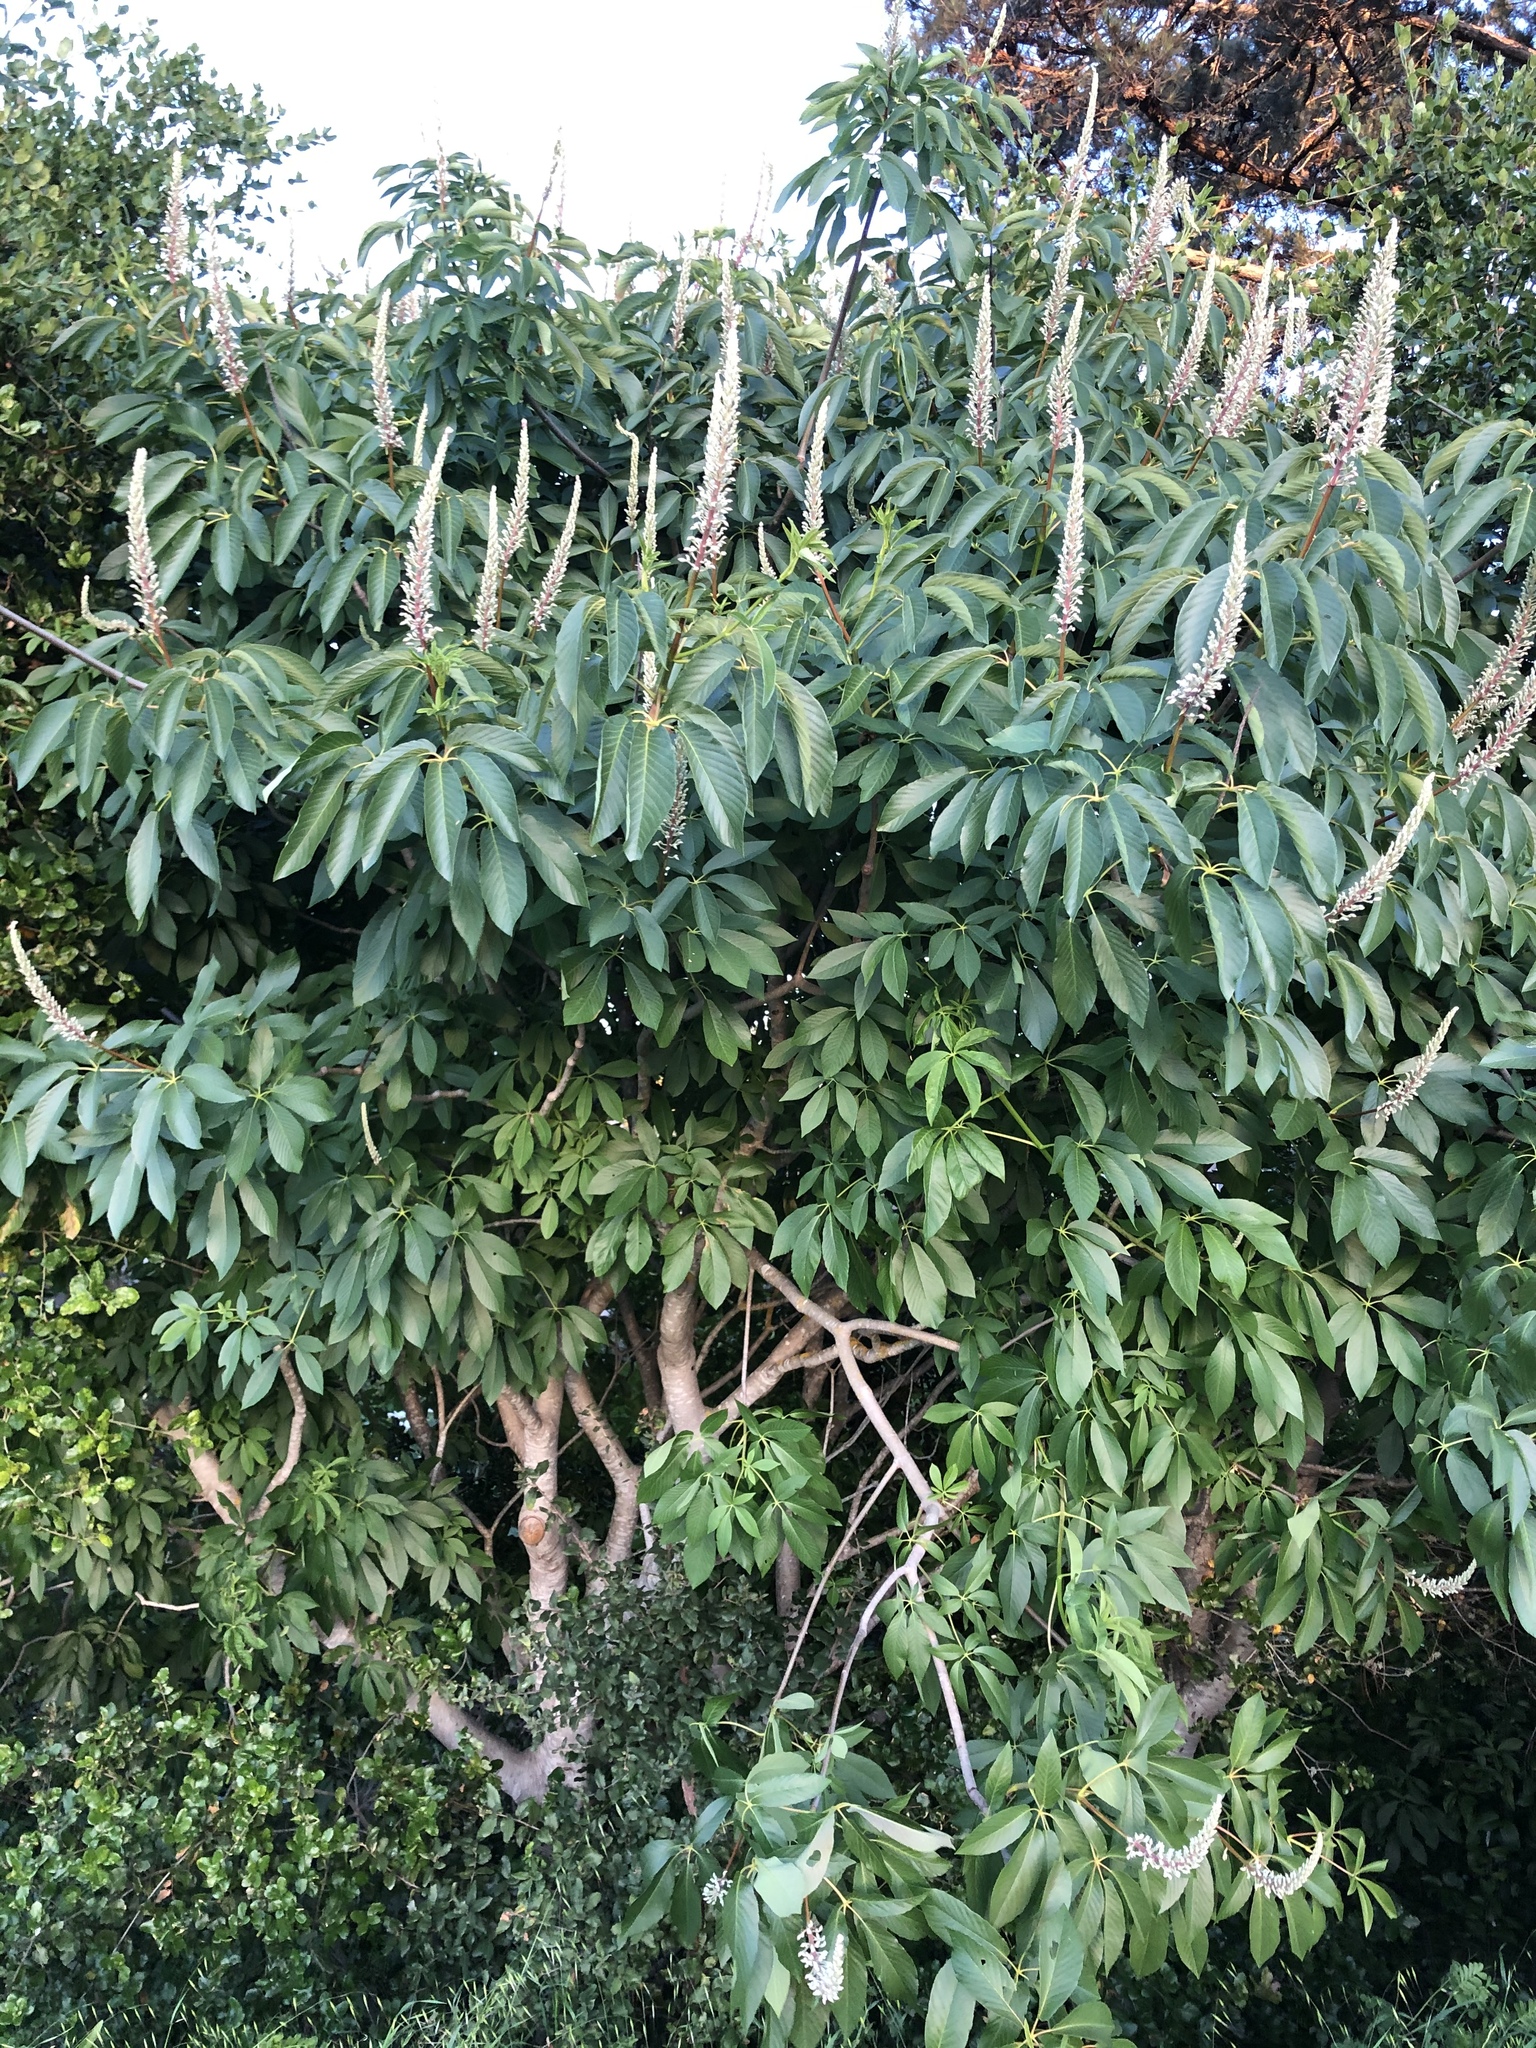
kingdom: Plantae
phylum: Tracheophyta
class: Magnoliopsida
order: Sapindales
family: Sapindaceae
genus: Aesculus
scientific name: Aesculus californica
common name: California buckeye
